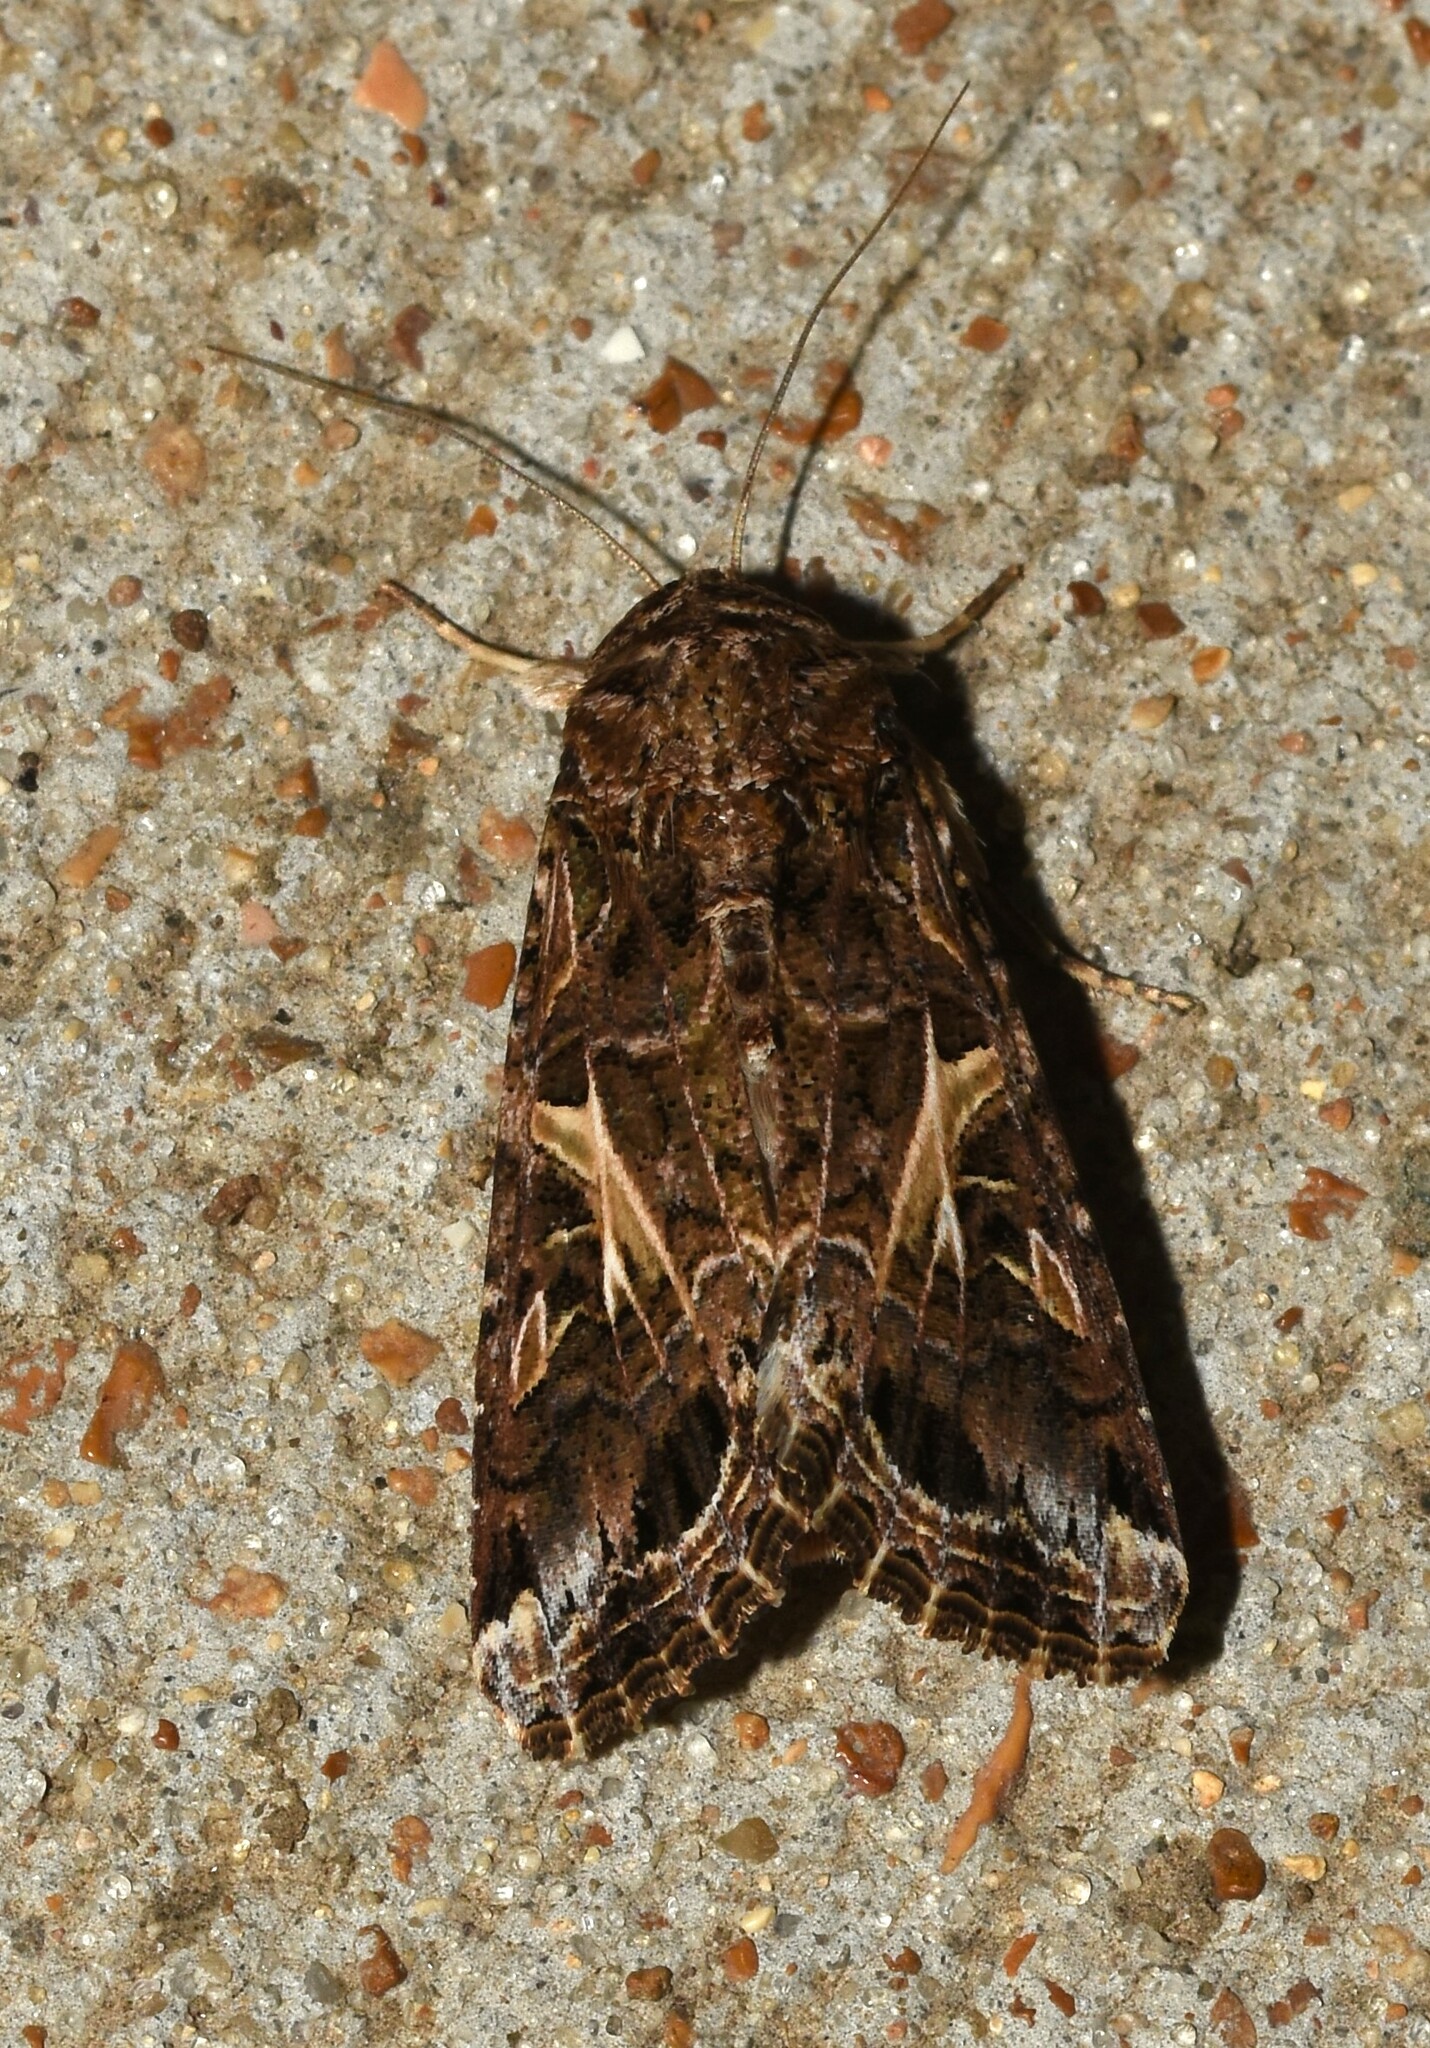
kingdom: Animalia
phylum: Arthropoda
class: Insecta
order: Lepidoptera
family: Noctuidae
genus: Spodoptera
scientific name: Spodoptera ornithogalli
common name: Yellow-striped armyworm
